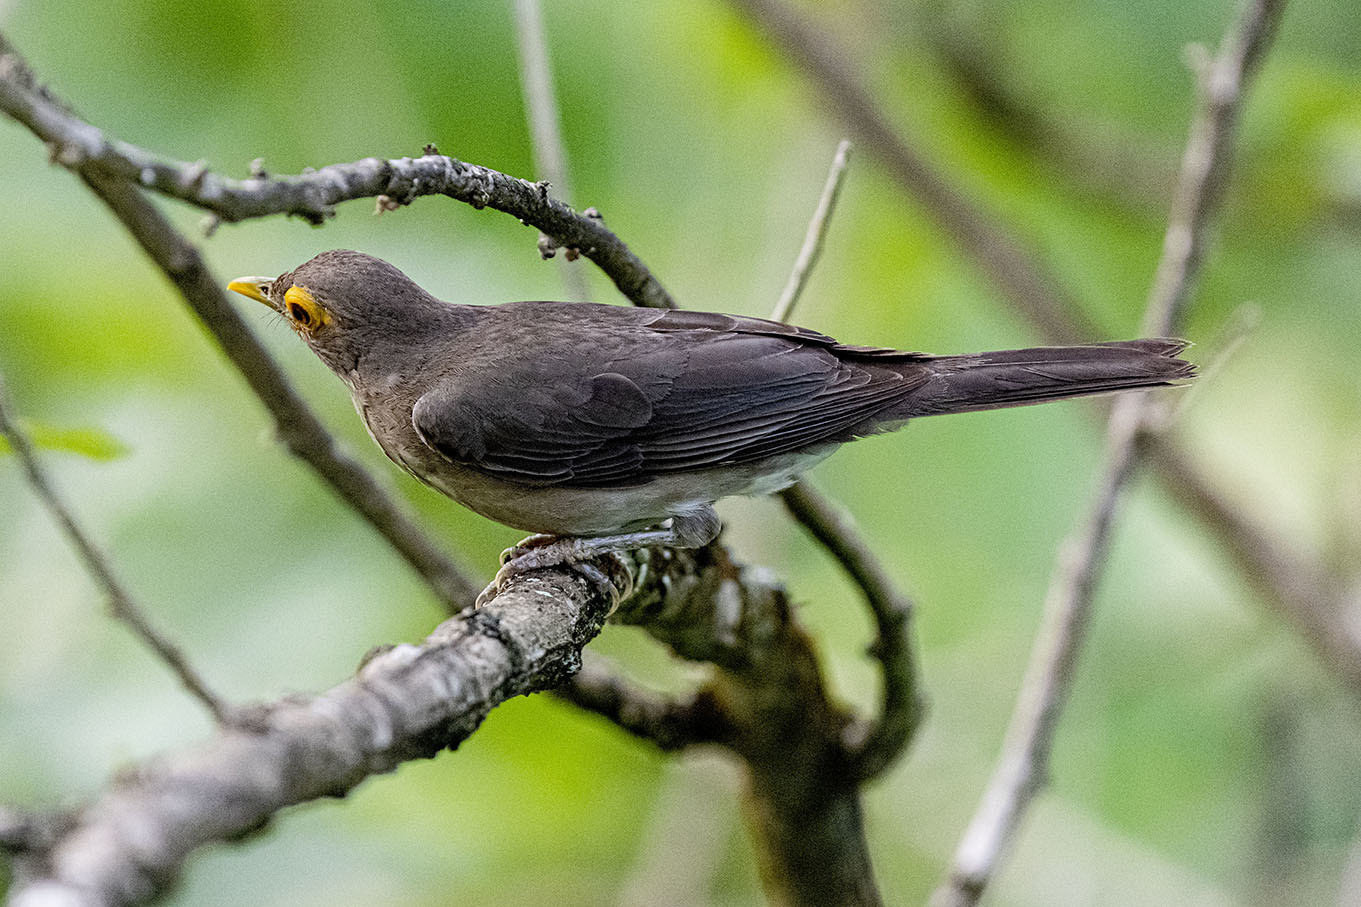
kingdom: Animalia
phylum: Chordata
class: Aves
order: Passeriformes
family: Turdidae
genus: Turdus
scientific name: Turdus nudigenis
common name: Spectacled thrush
